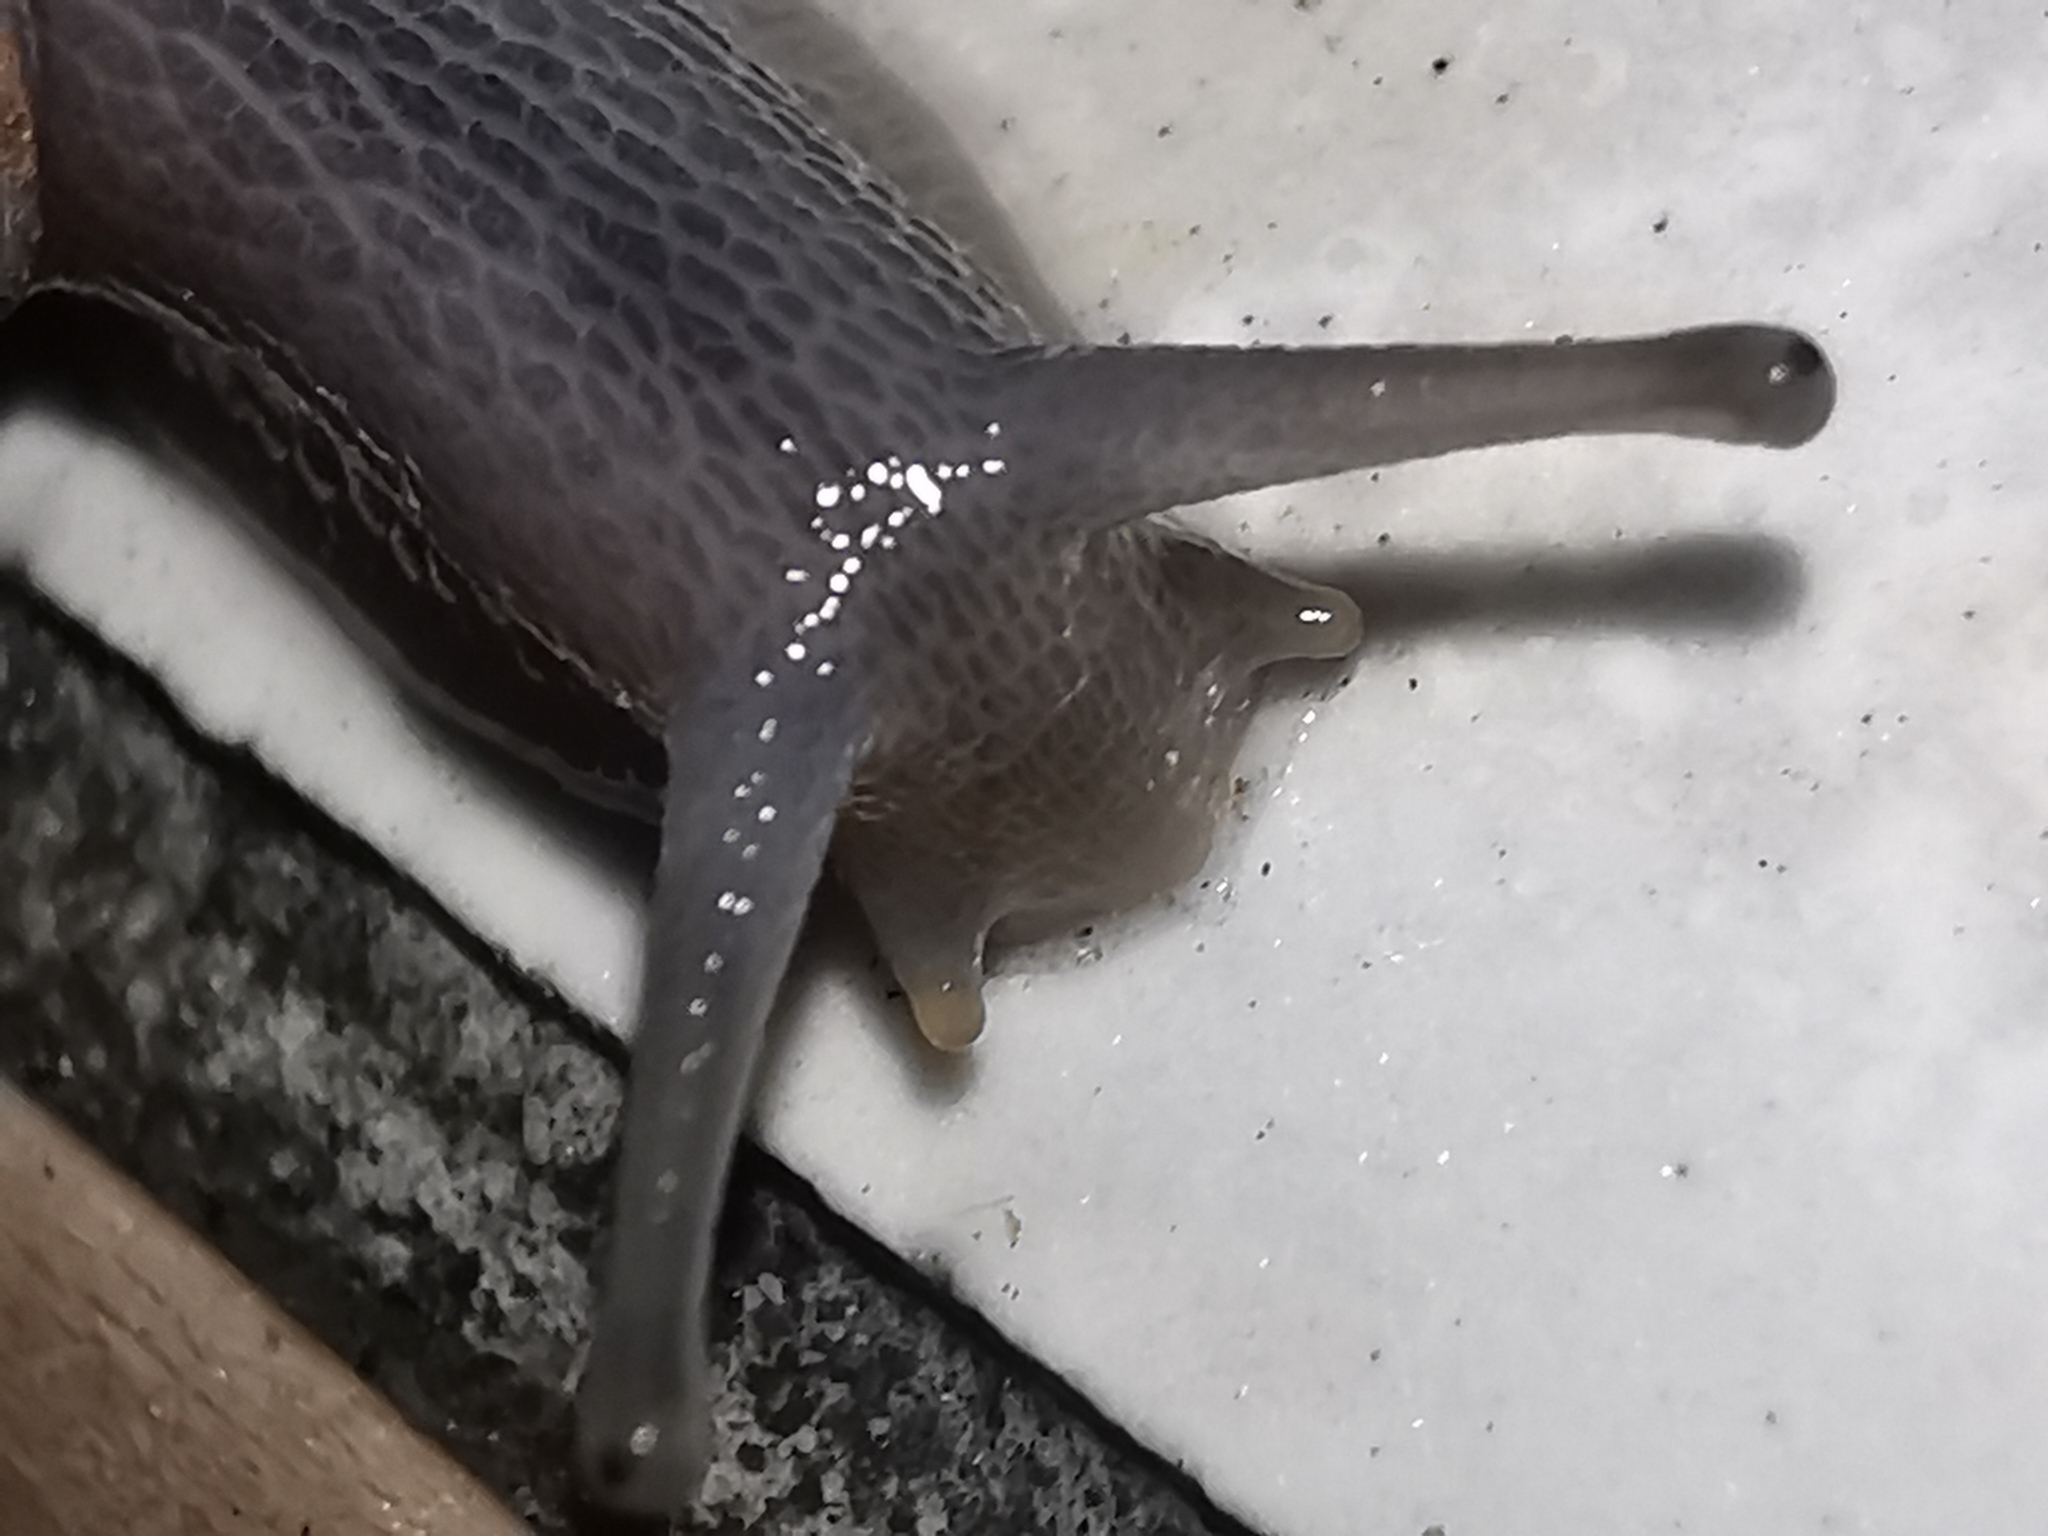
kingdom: Animalia
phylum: Mollusca
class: Gastropoda
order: Stylommatophora
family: Achatinidae
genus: Rumina
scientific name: Rumina decollata
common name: Decollate snail
